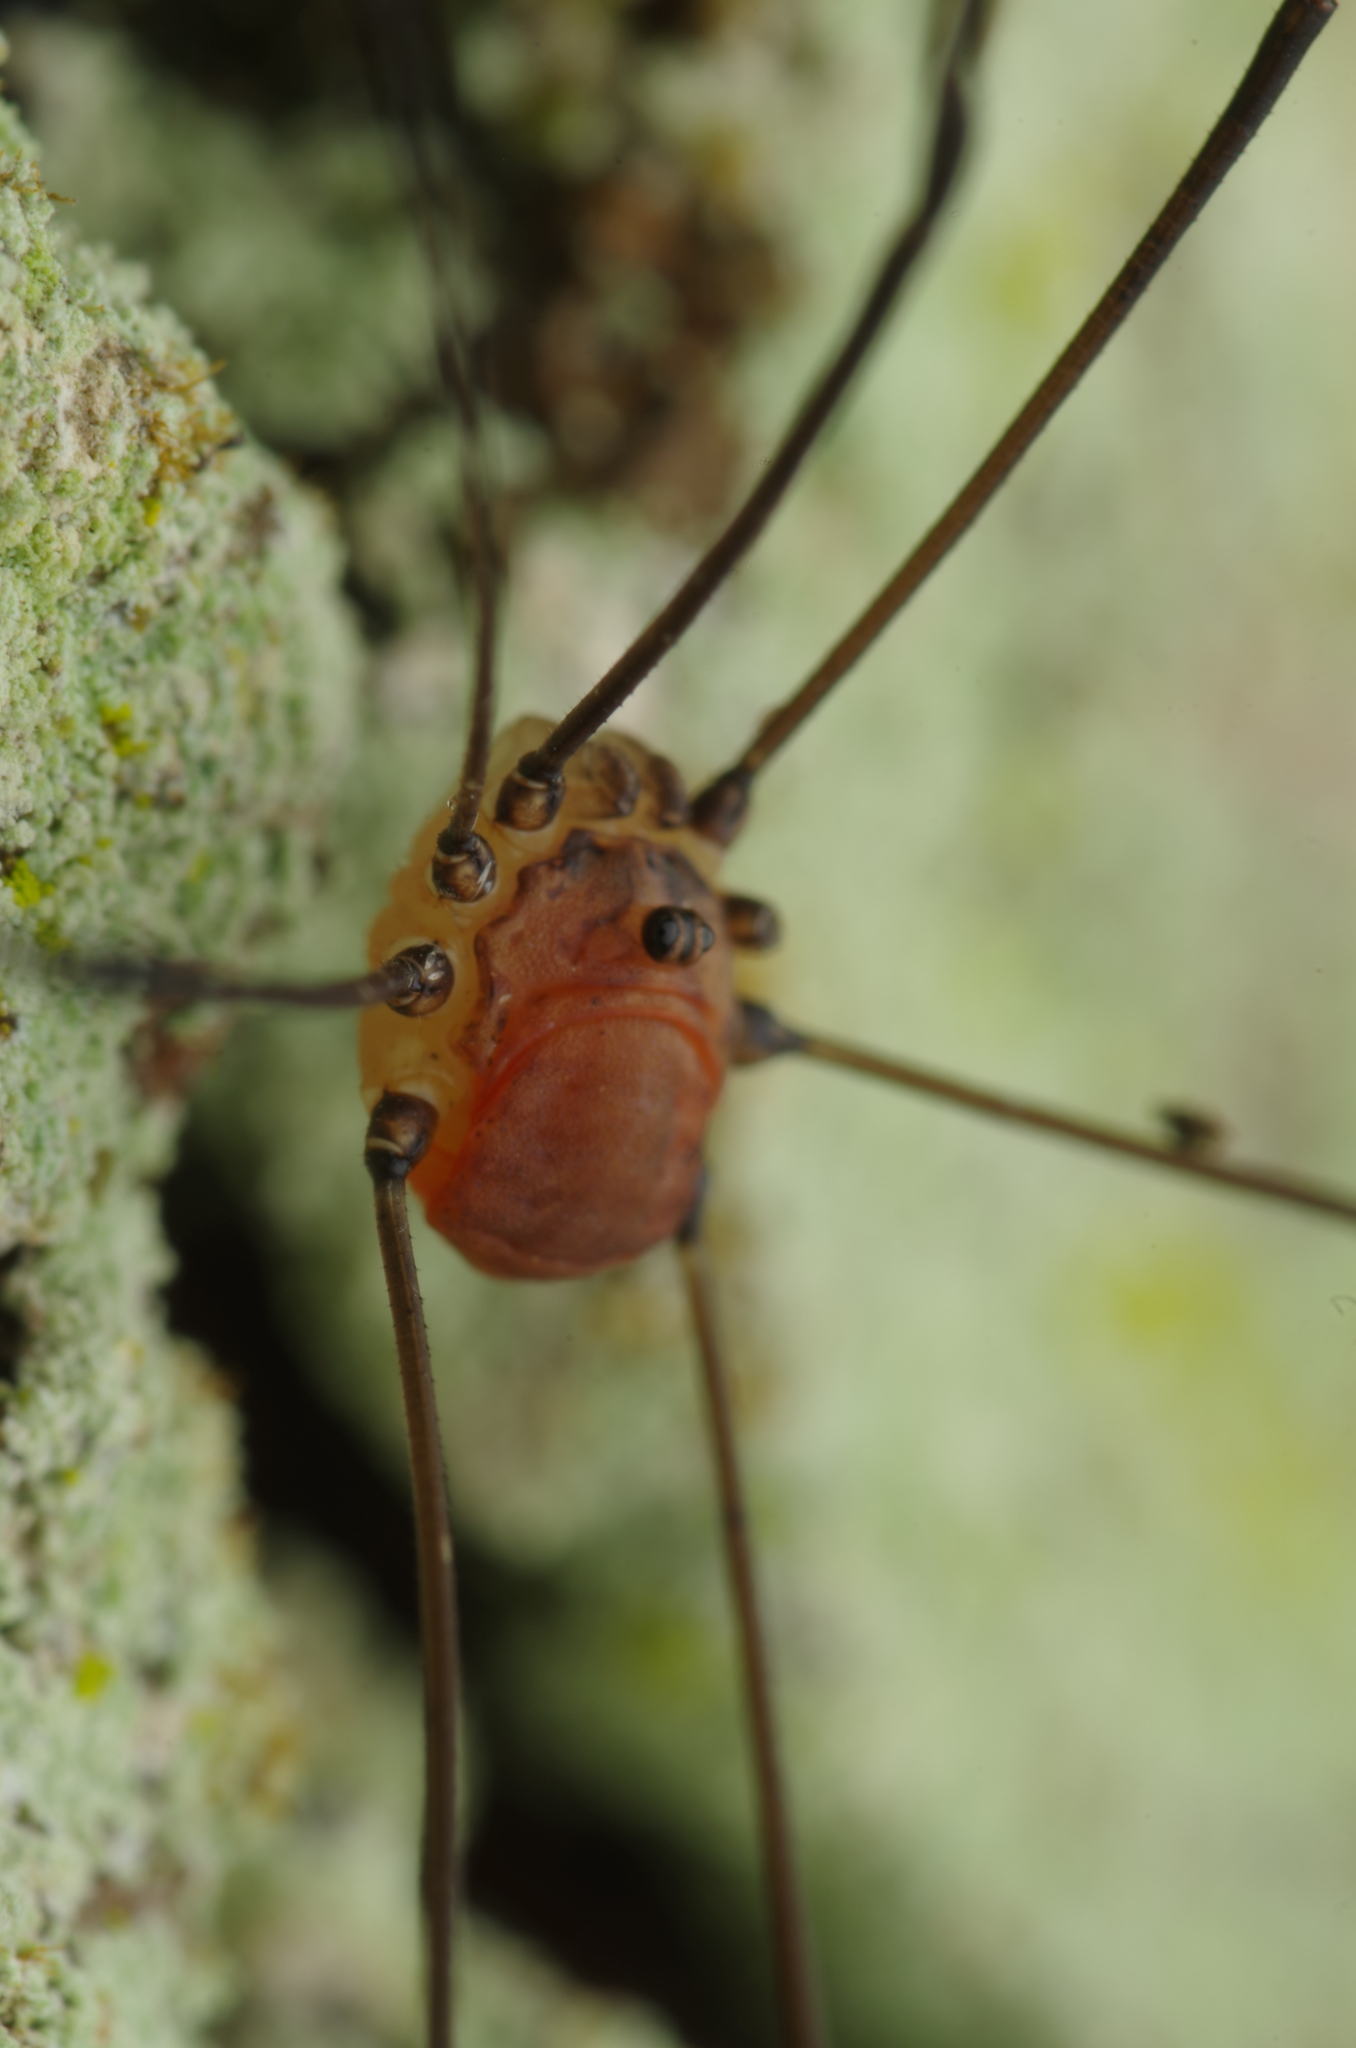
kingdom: Animalia
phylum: Arthropoda
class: Arachnida
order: Opiliones
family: Sclerosomatidae
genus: Leiobunum
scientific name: Leiobunum blackwalli
